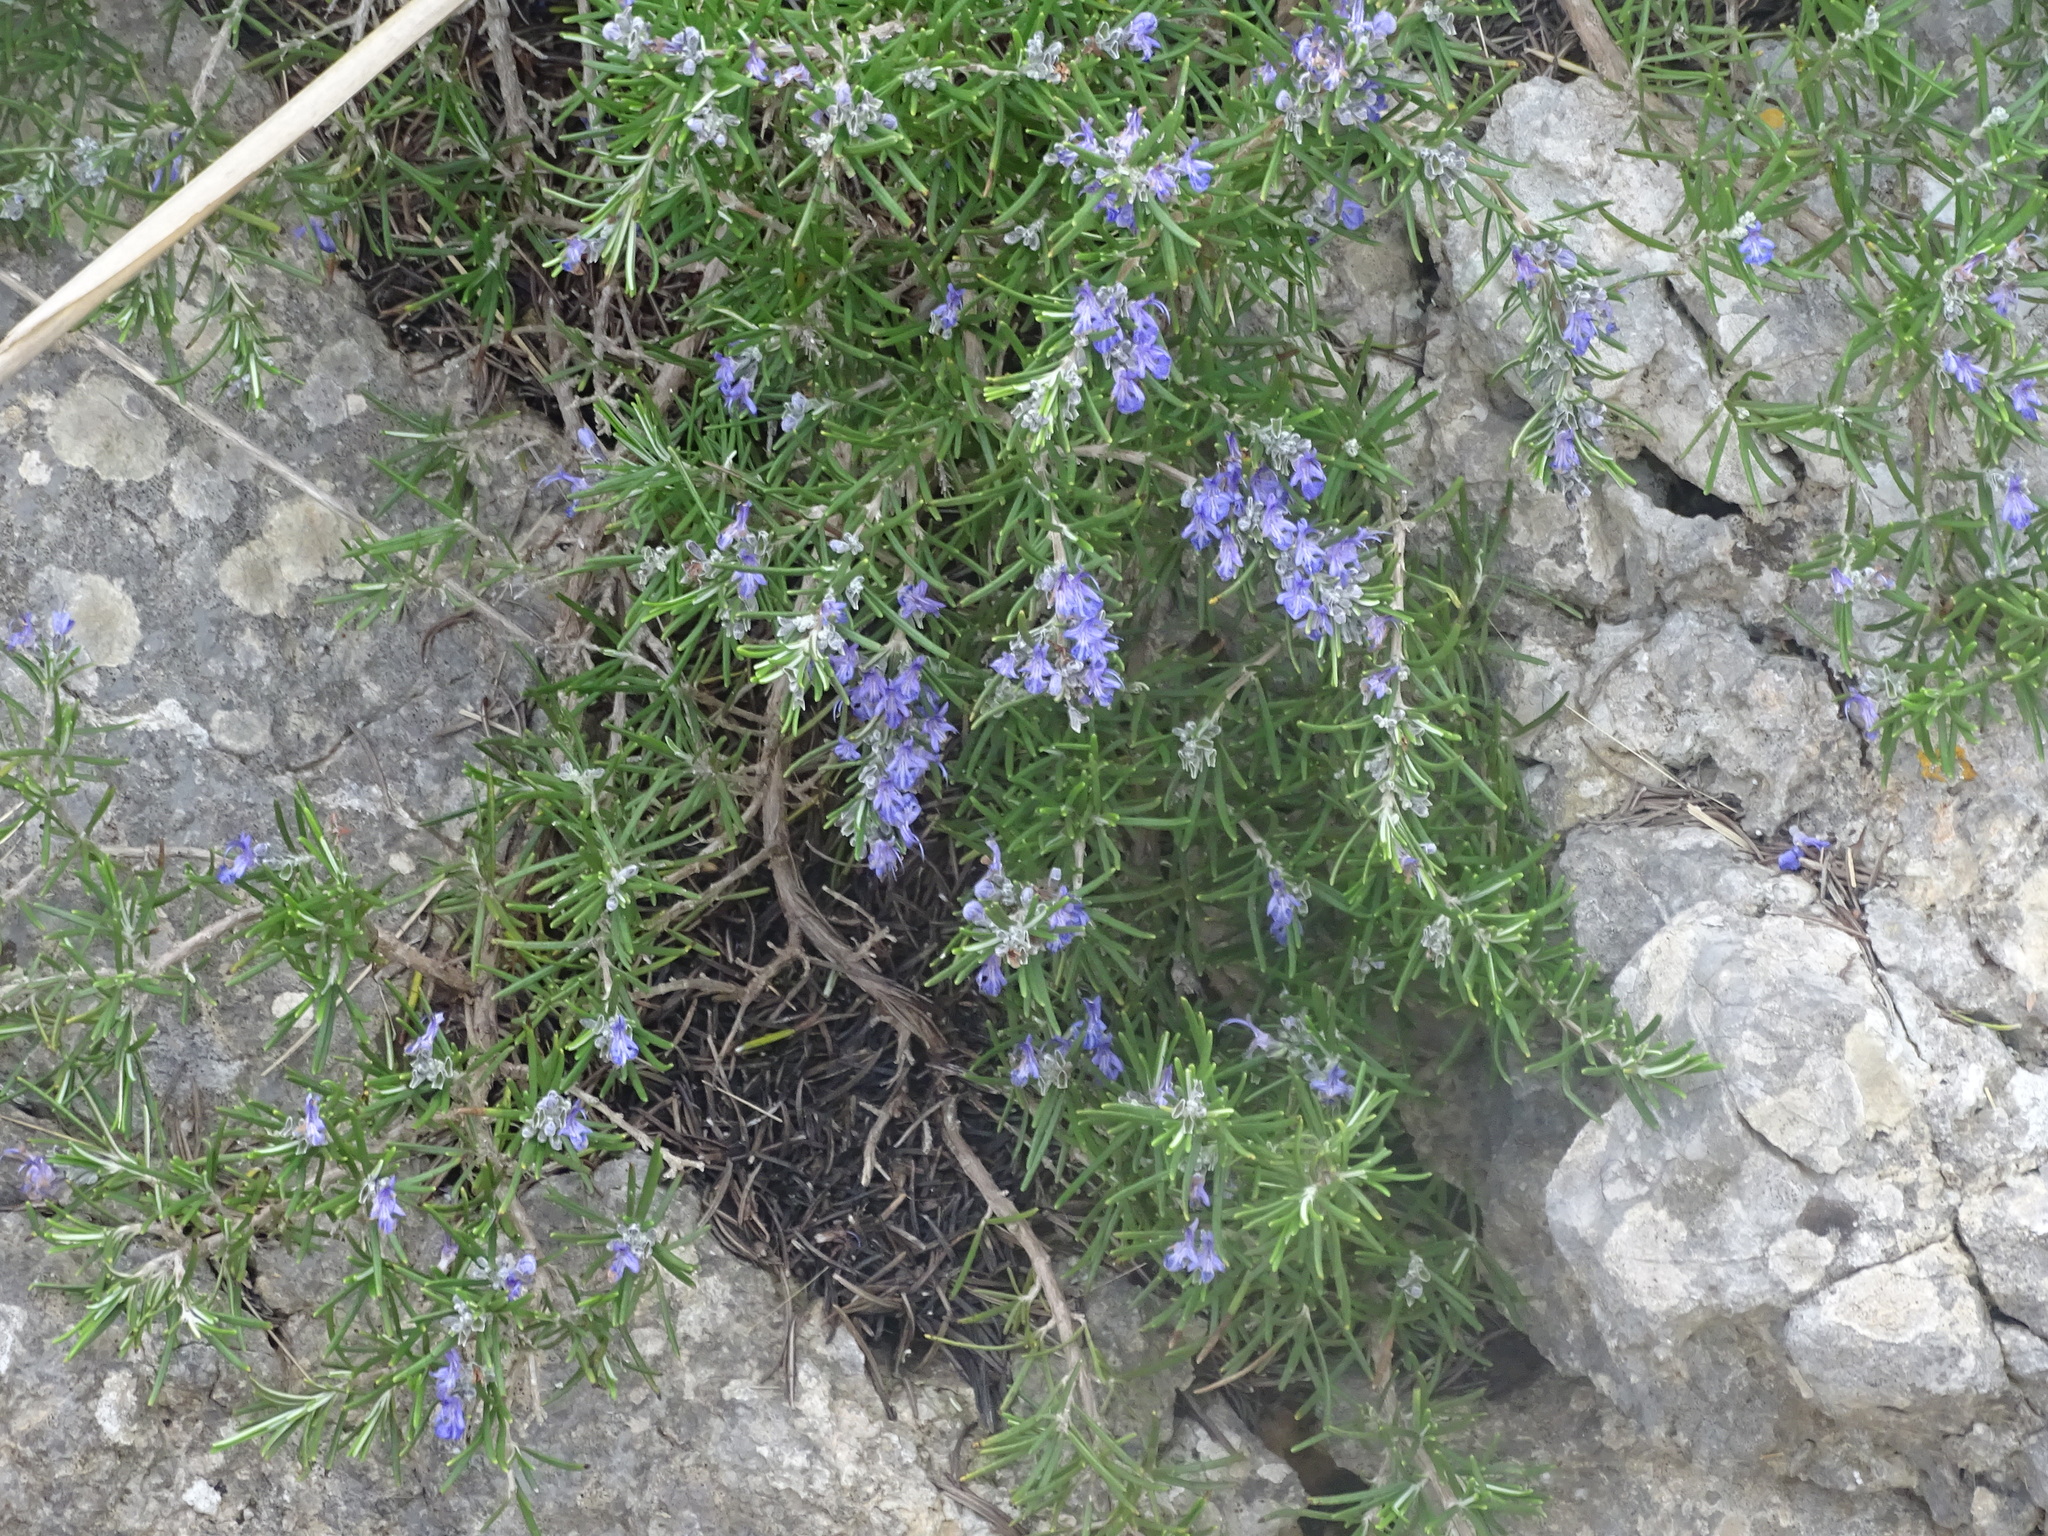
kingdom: Plantae
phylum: Tracheophyta
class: Magnoliopsida
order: Lamiales
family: Lamiaceae
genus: Salvia
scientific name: Salvia rosmarinus
